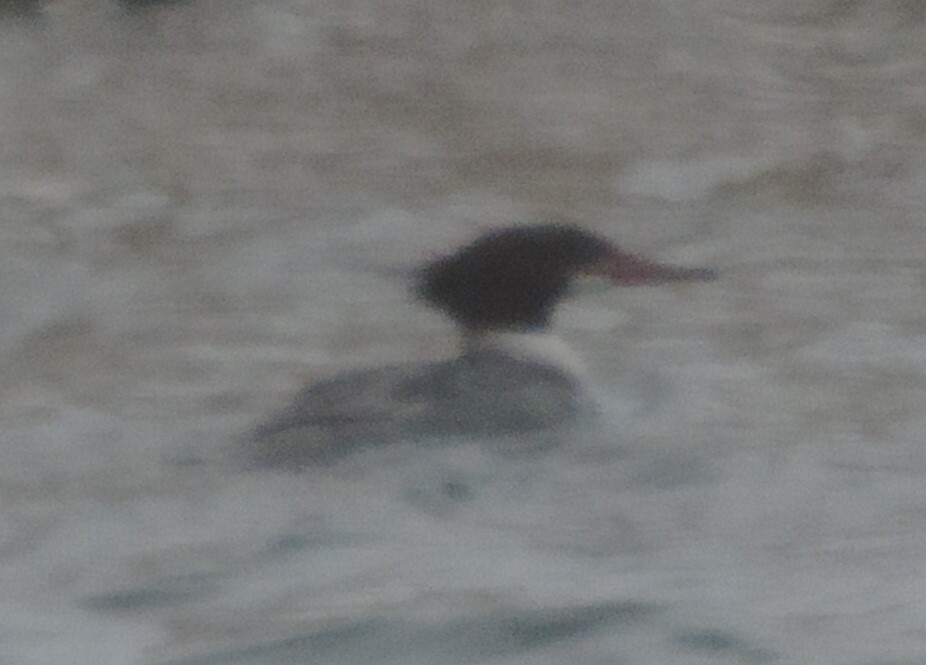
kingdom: Animalia
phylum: Chordata
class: Aves
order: Anseriformes
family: Anatidae
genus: Mergus
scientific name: Mergus merganser
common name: Common merganser
